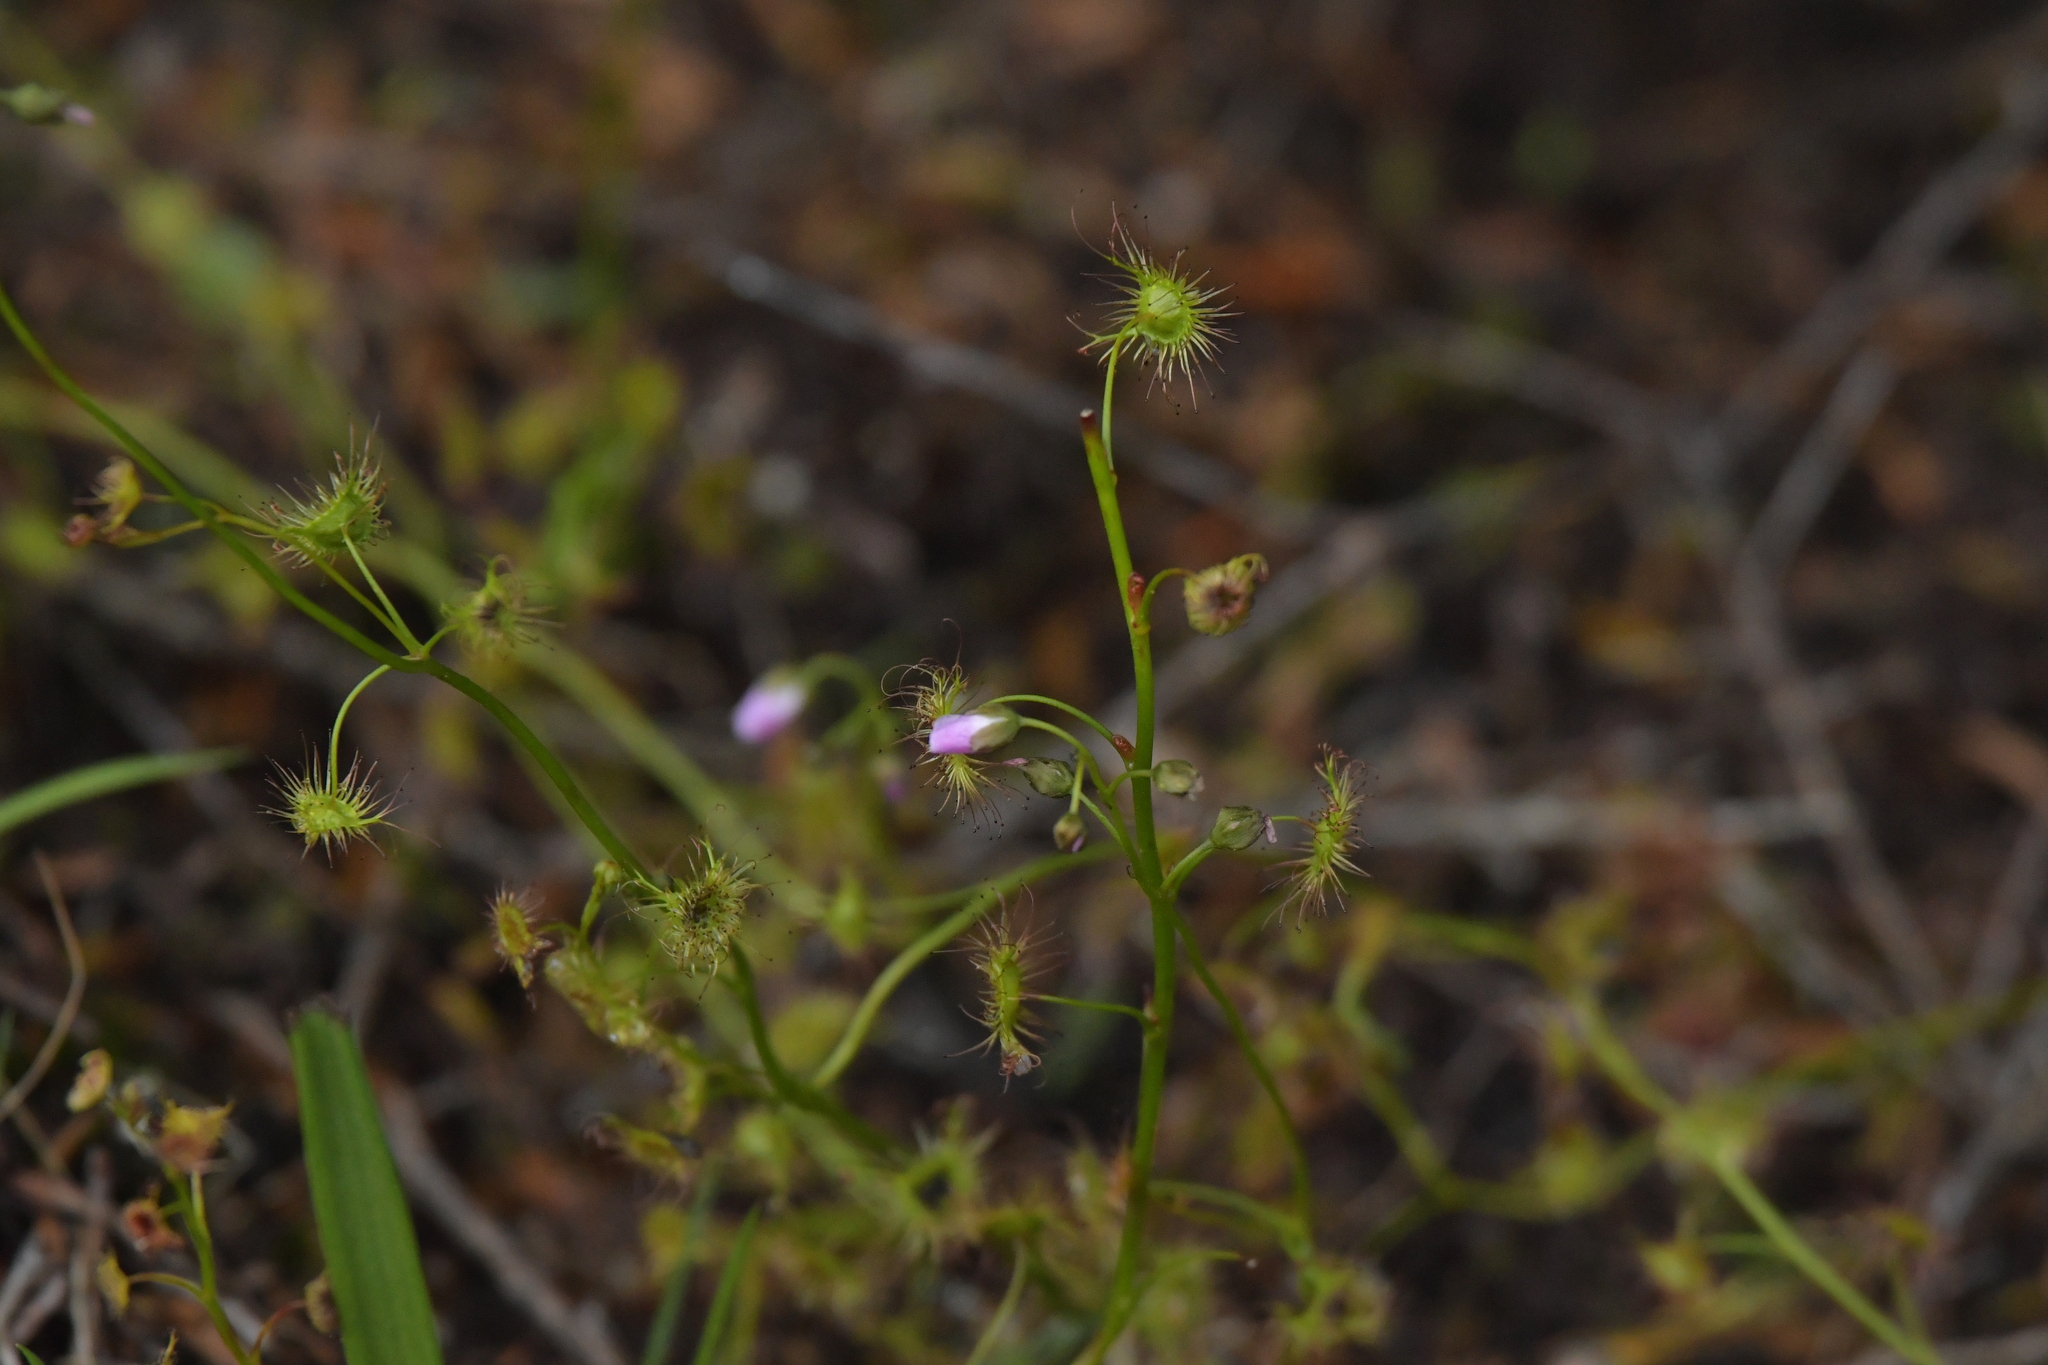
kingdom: Plantae
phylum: Tracheophyta
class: Magnoliopsida
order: Caryophyllales
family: Droseraceae
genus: Drosera
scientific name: Drosera peltata
